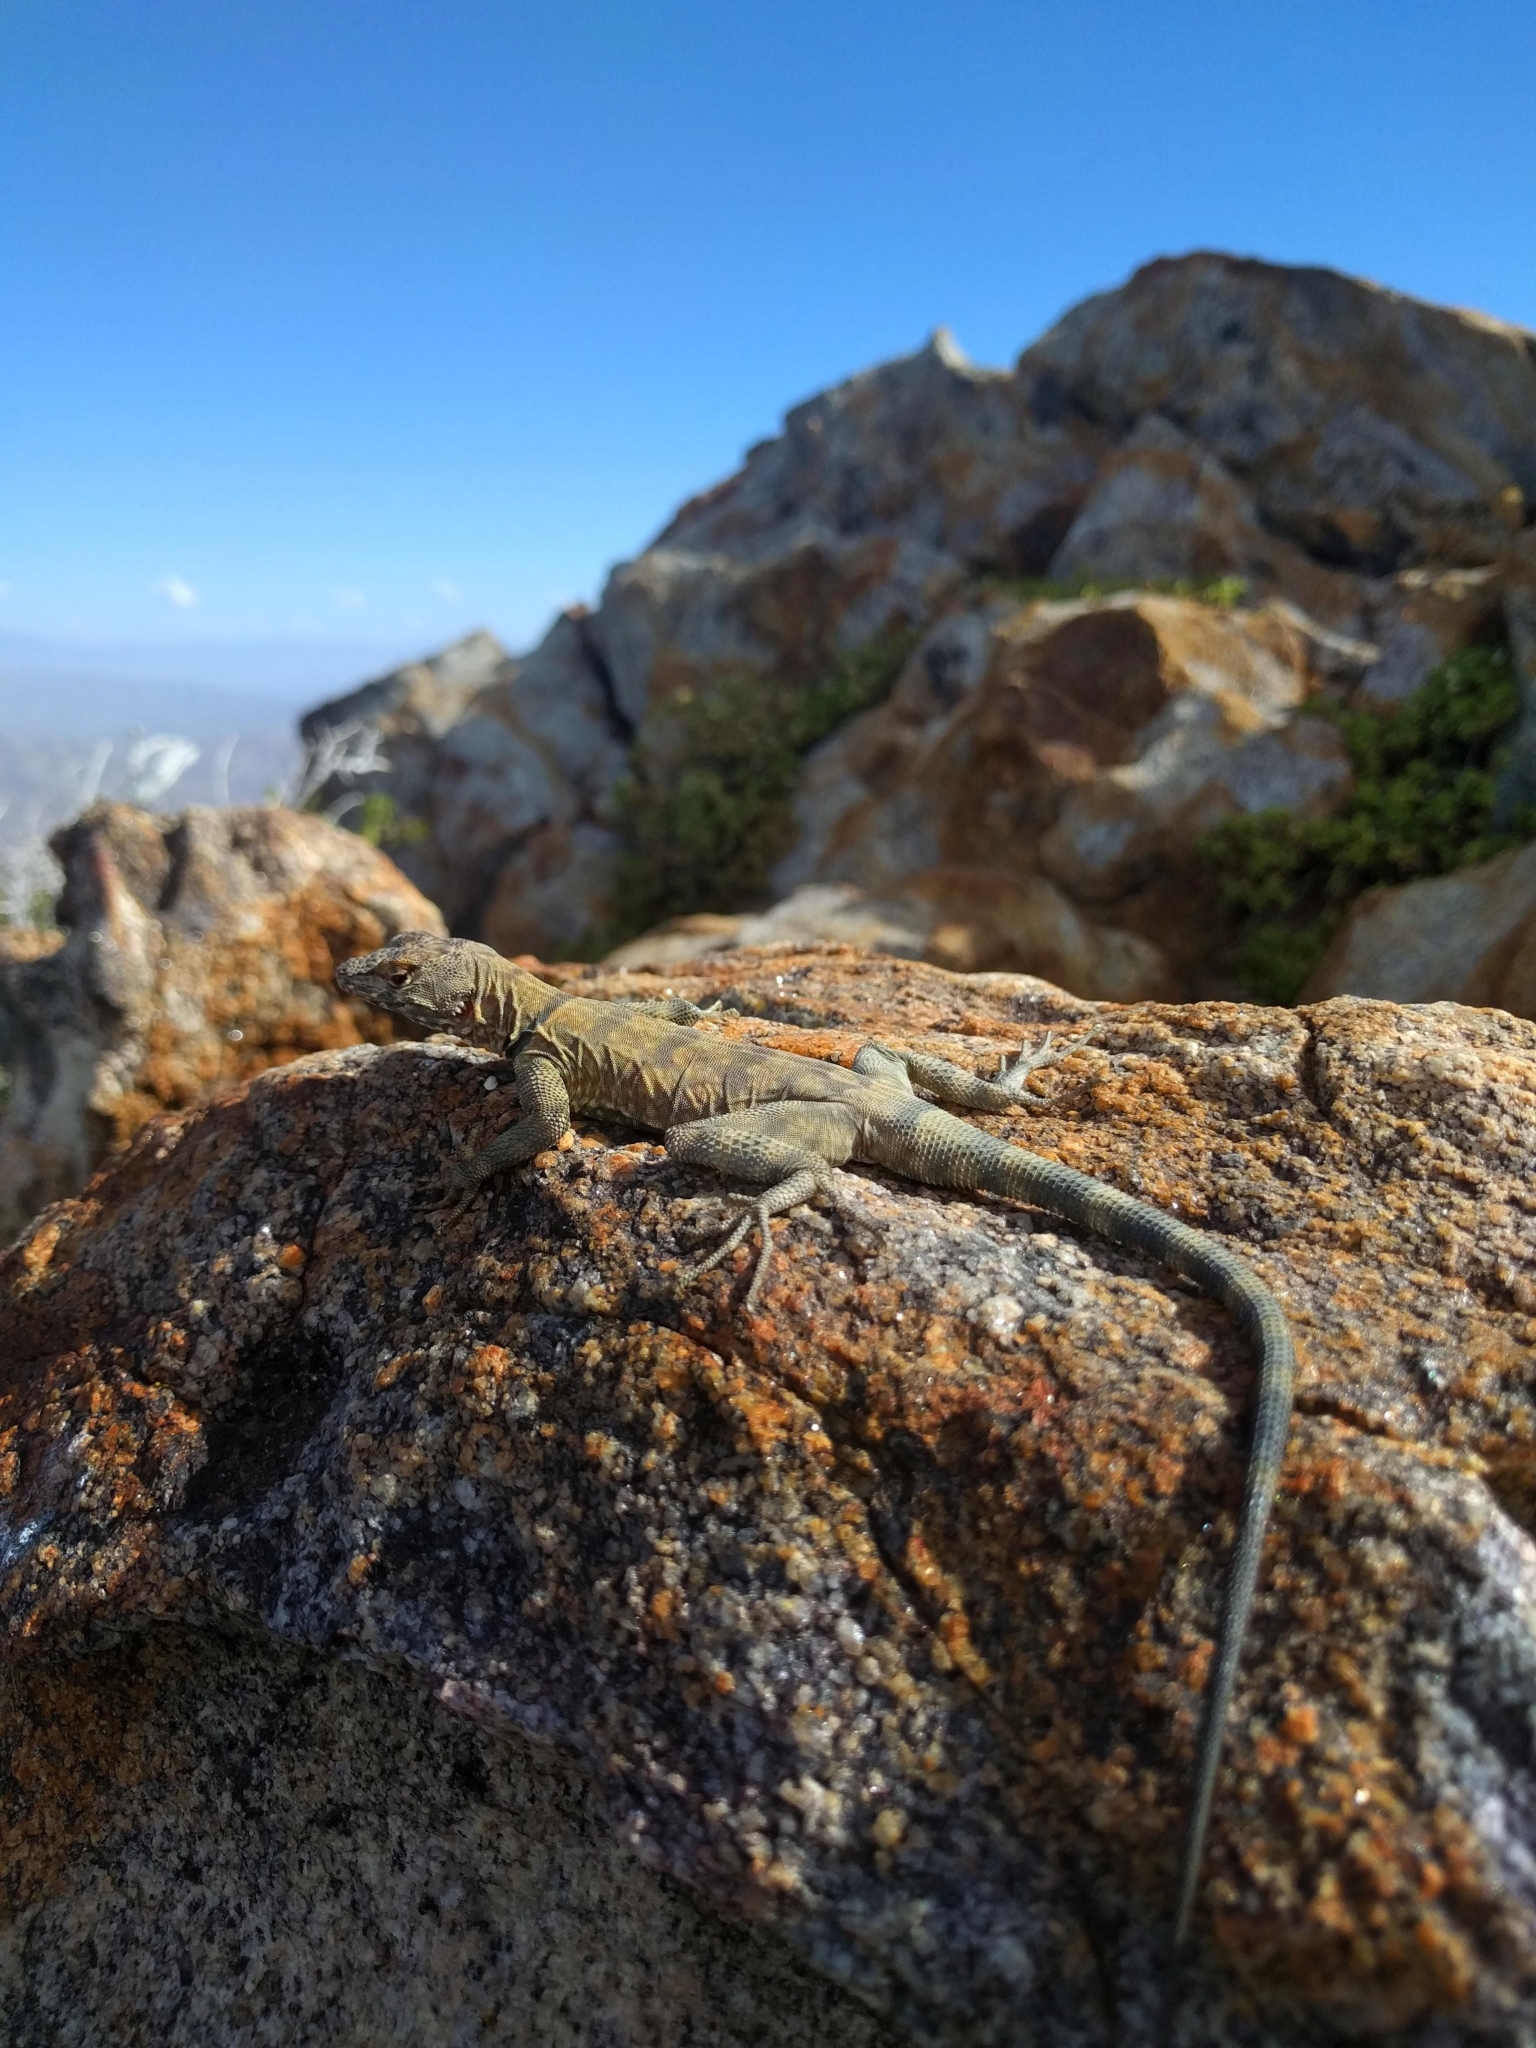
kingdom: Animalia
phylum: Chordata
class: Squamata
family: Phrynosomatidae
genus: Petrosaurus
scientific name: Petrosaurus mearnsi
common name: Banded rock lizard
